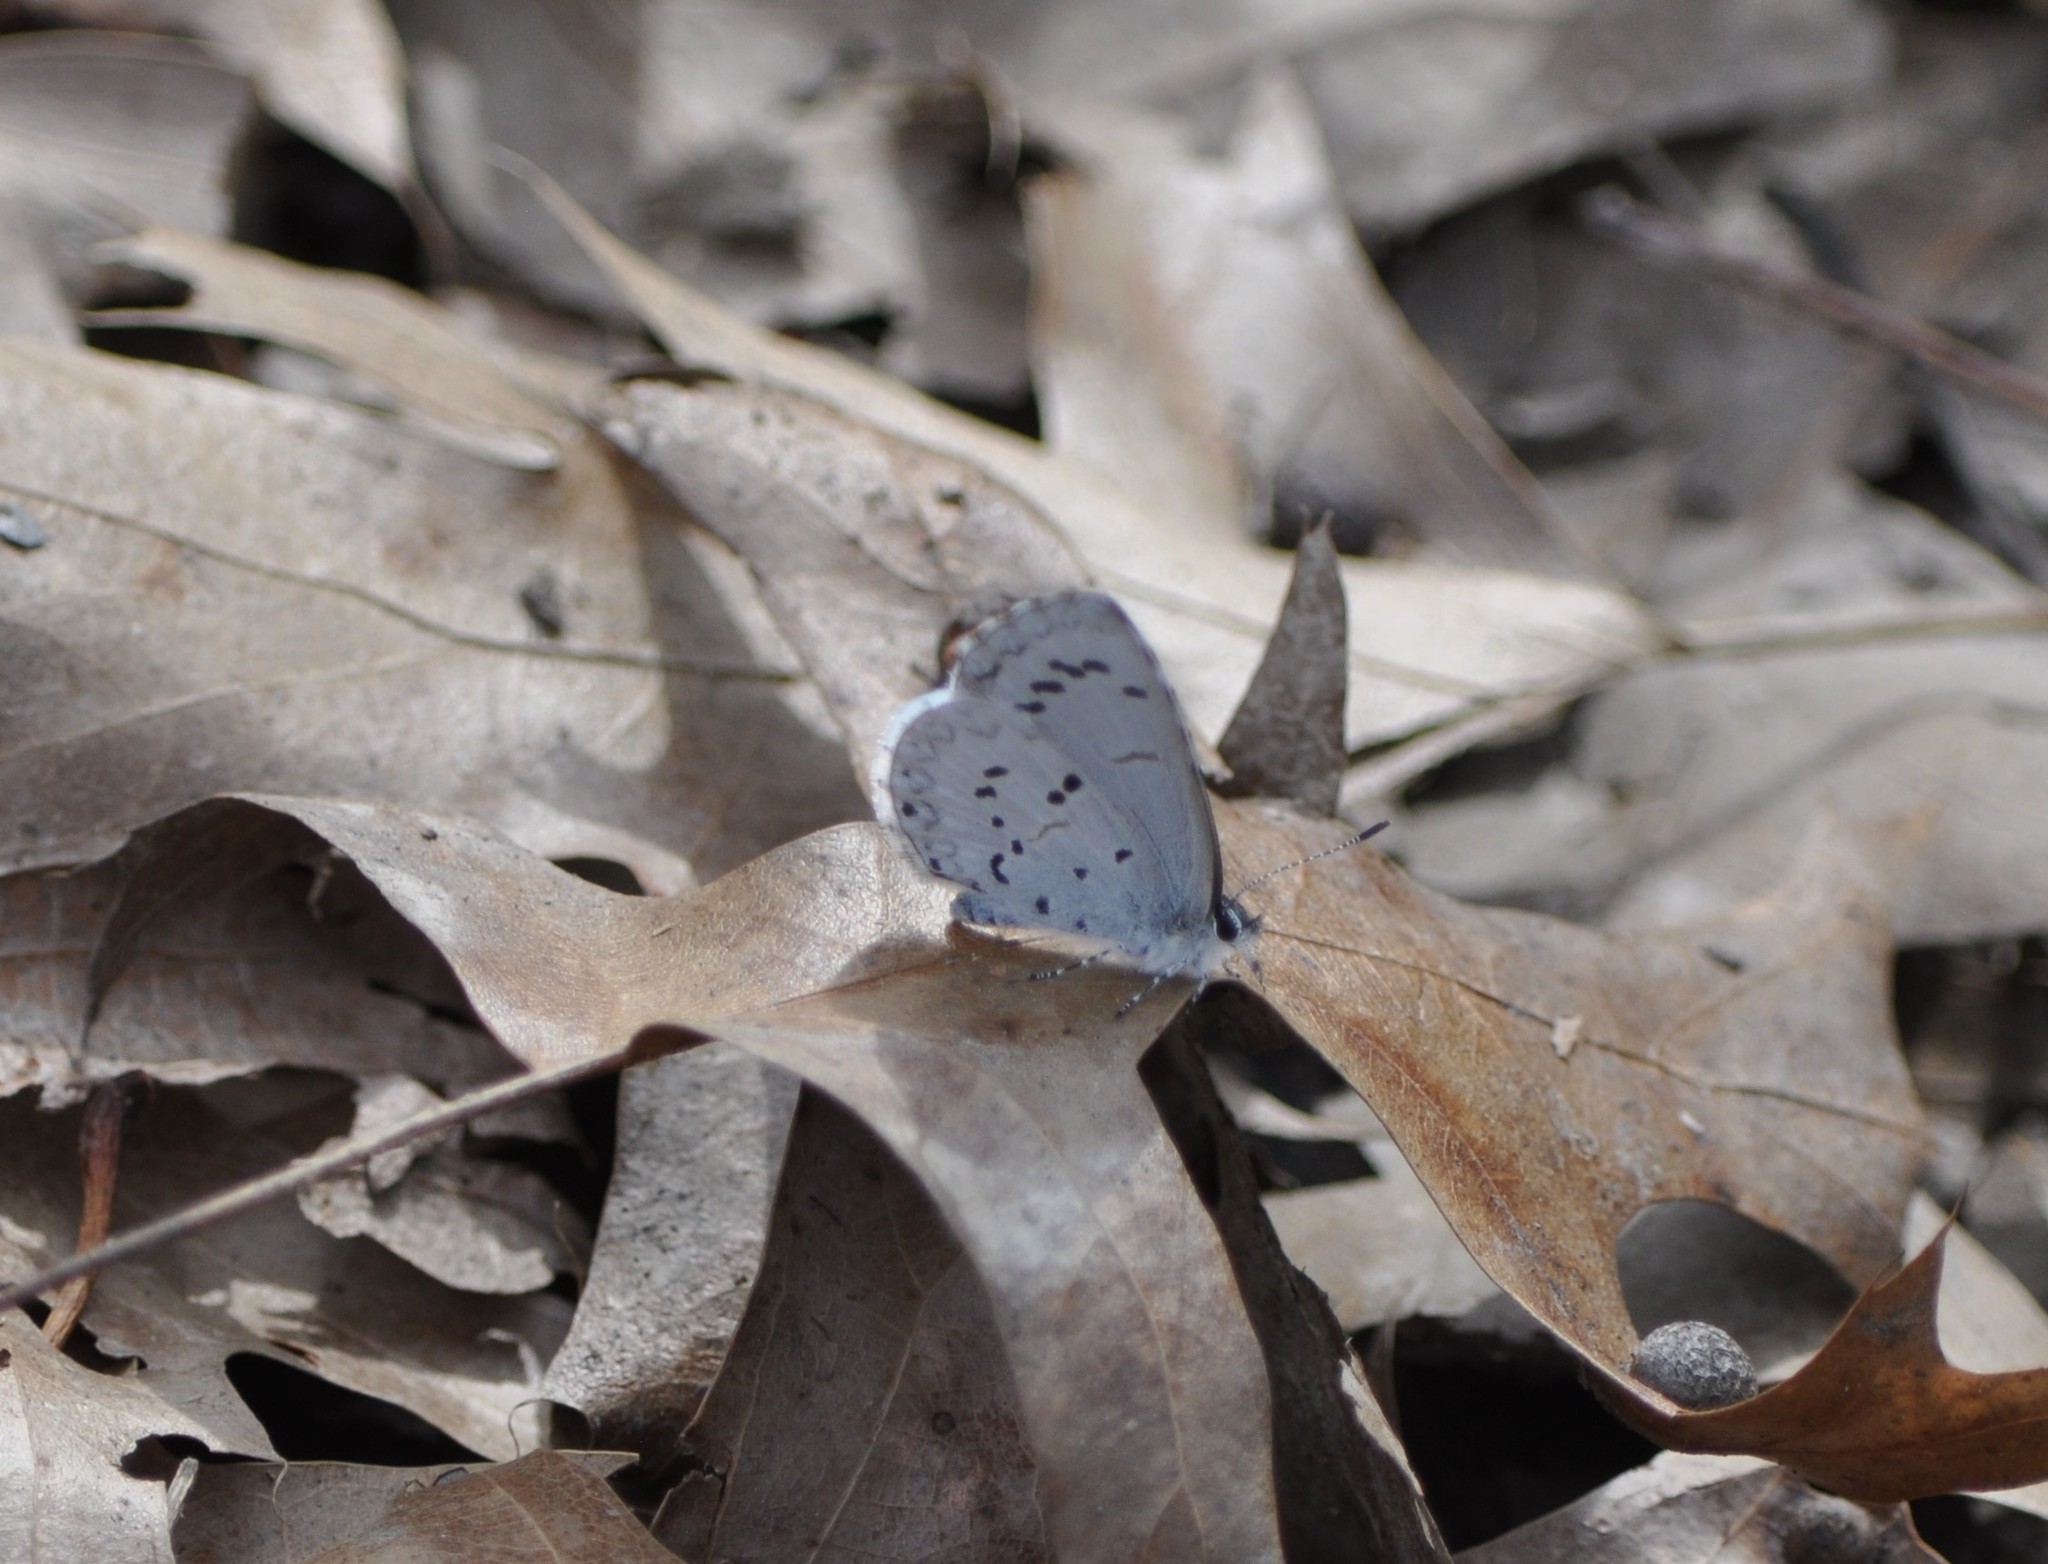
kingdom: Animalia
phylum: Arthropoda
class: Insecta
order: Lepidoptera
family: Lycaenidae
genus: Celastrina
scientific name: Celastrina ladon
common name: Spring azure
